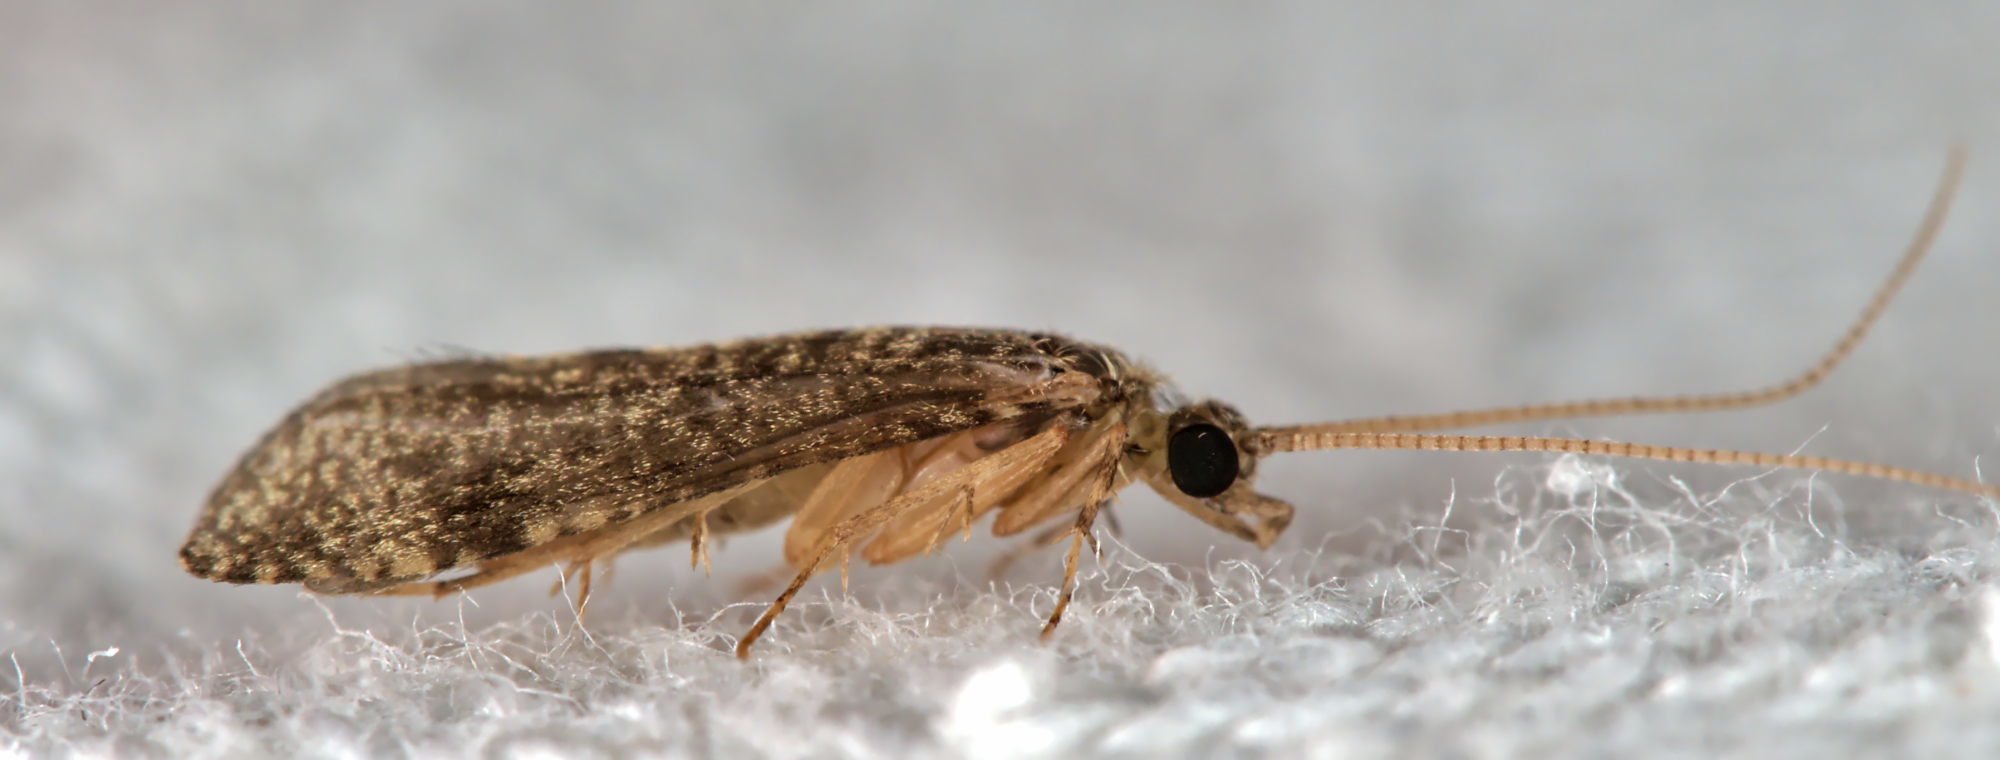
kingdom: Animalia
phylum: Arthropoda
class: Insecta
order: Trichoptera
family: Ecnomidae
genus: Ecnomus
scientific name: Ecnomus tenellus
